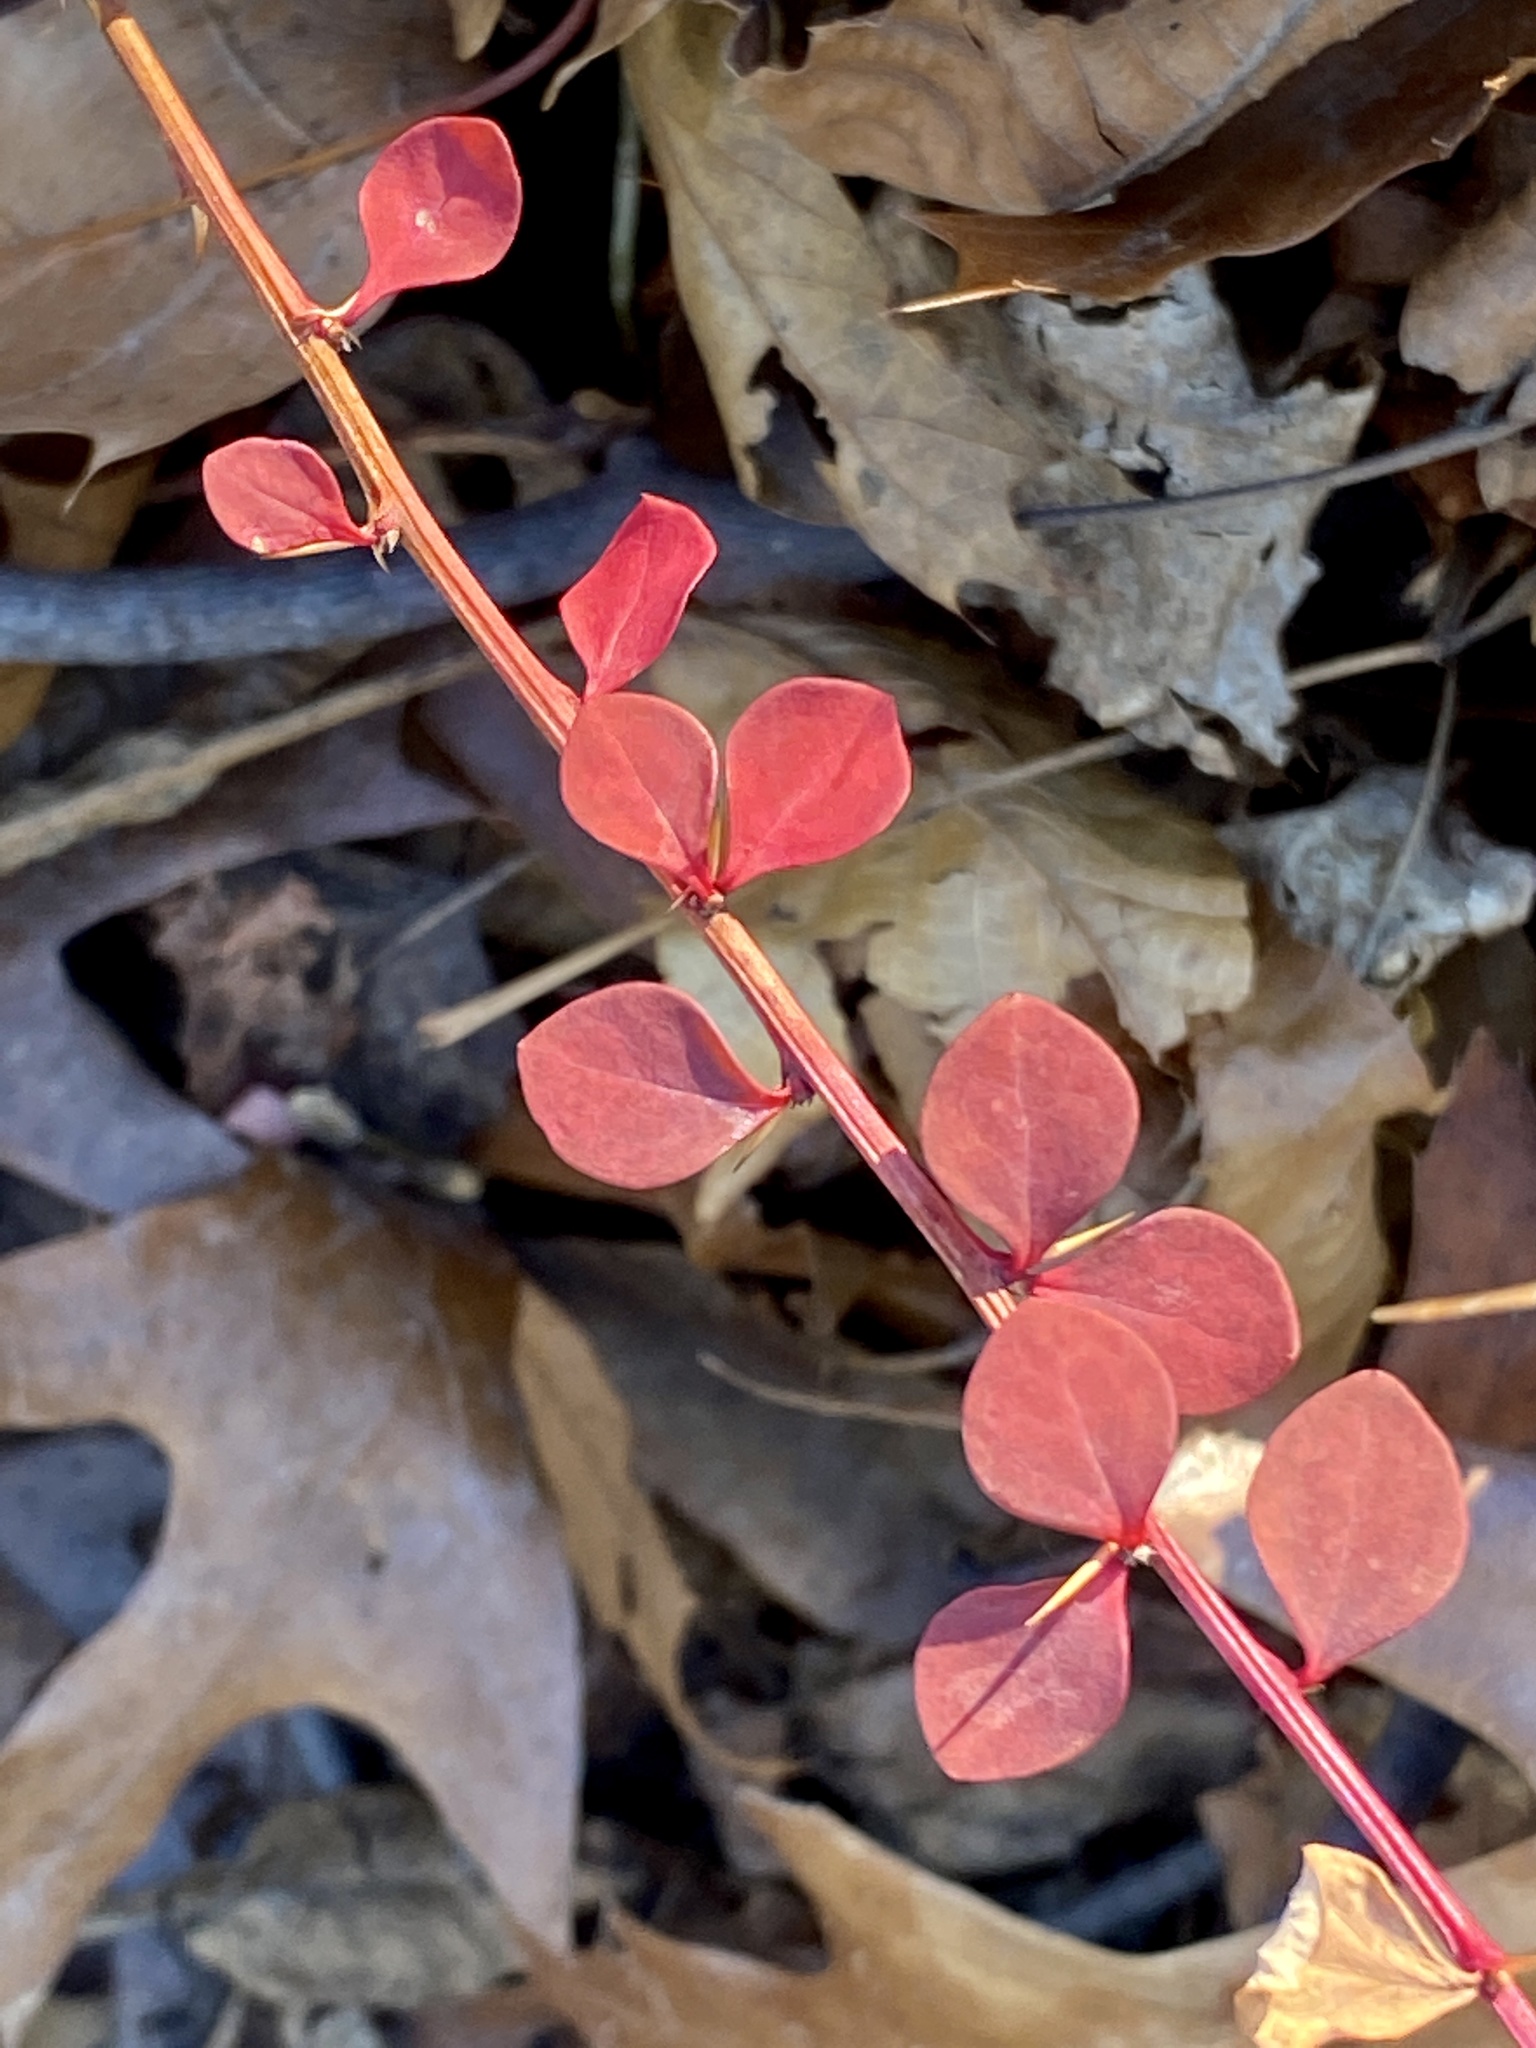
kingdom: Plantae
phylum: Tracheophyta
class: Magnoliopsida
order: Ranunculales
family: Berberidaceae
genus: Berberis
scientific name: Berberis thunbergii
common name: Japanese barberry
